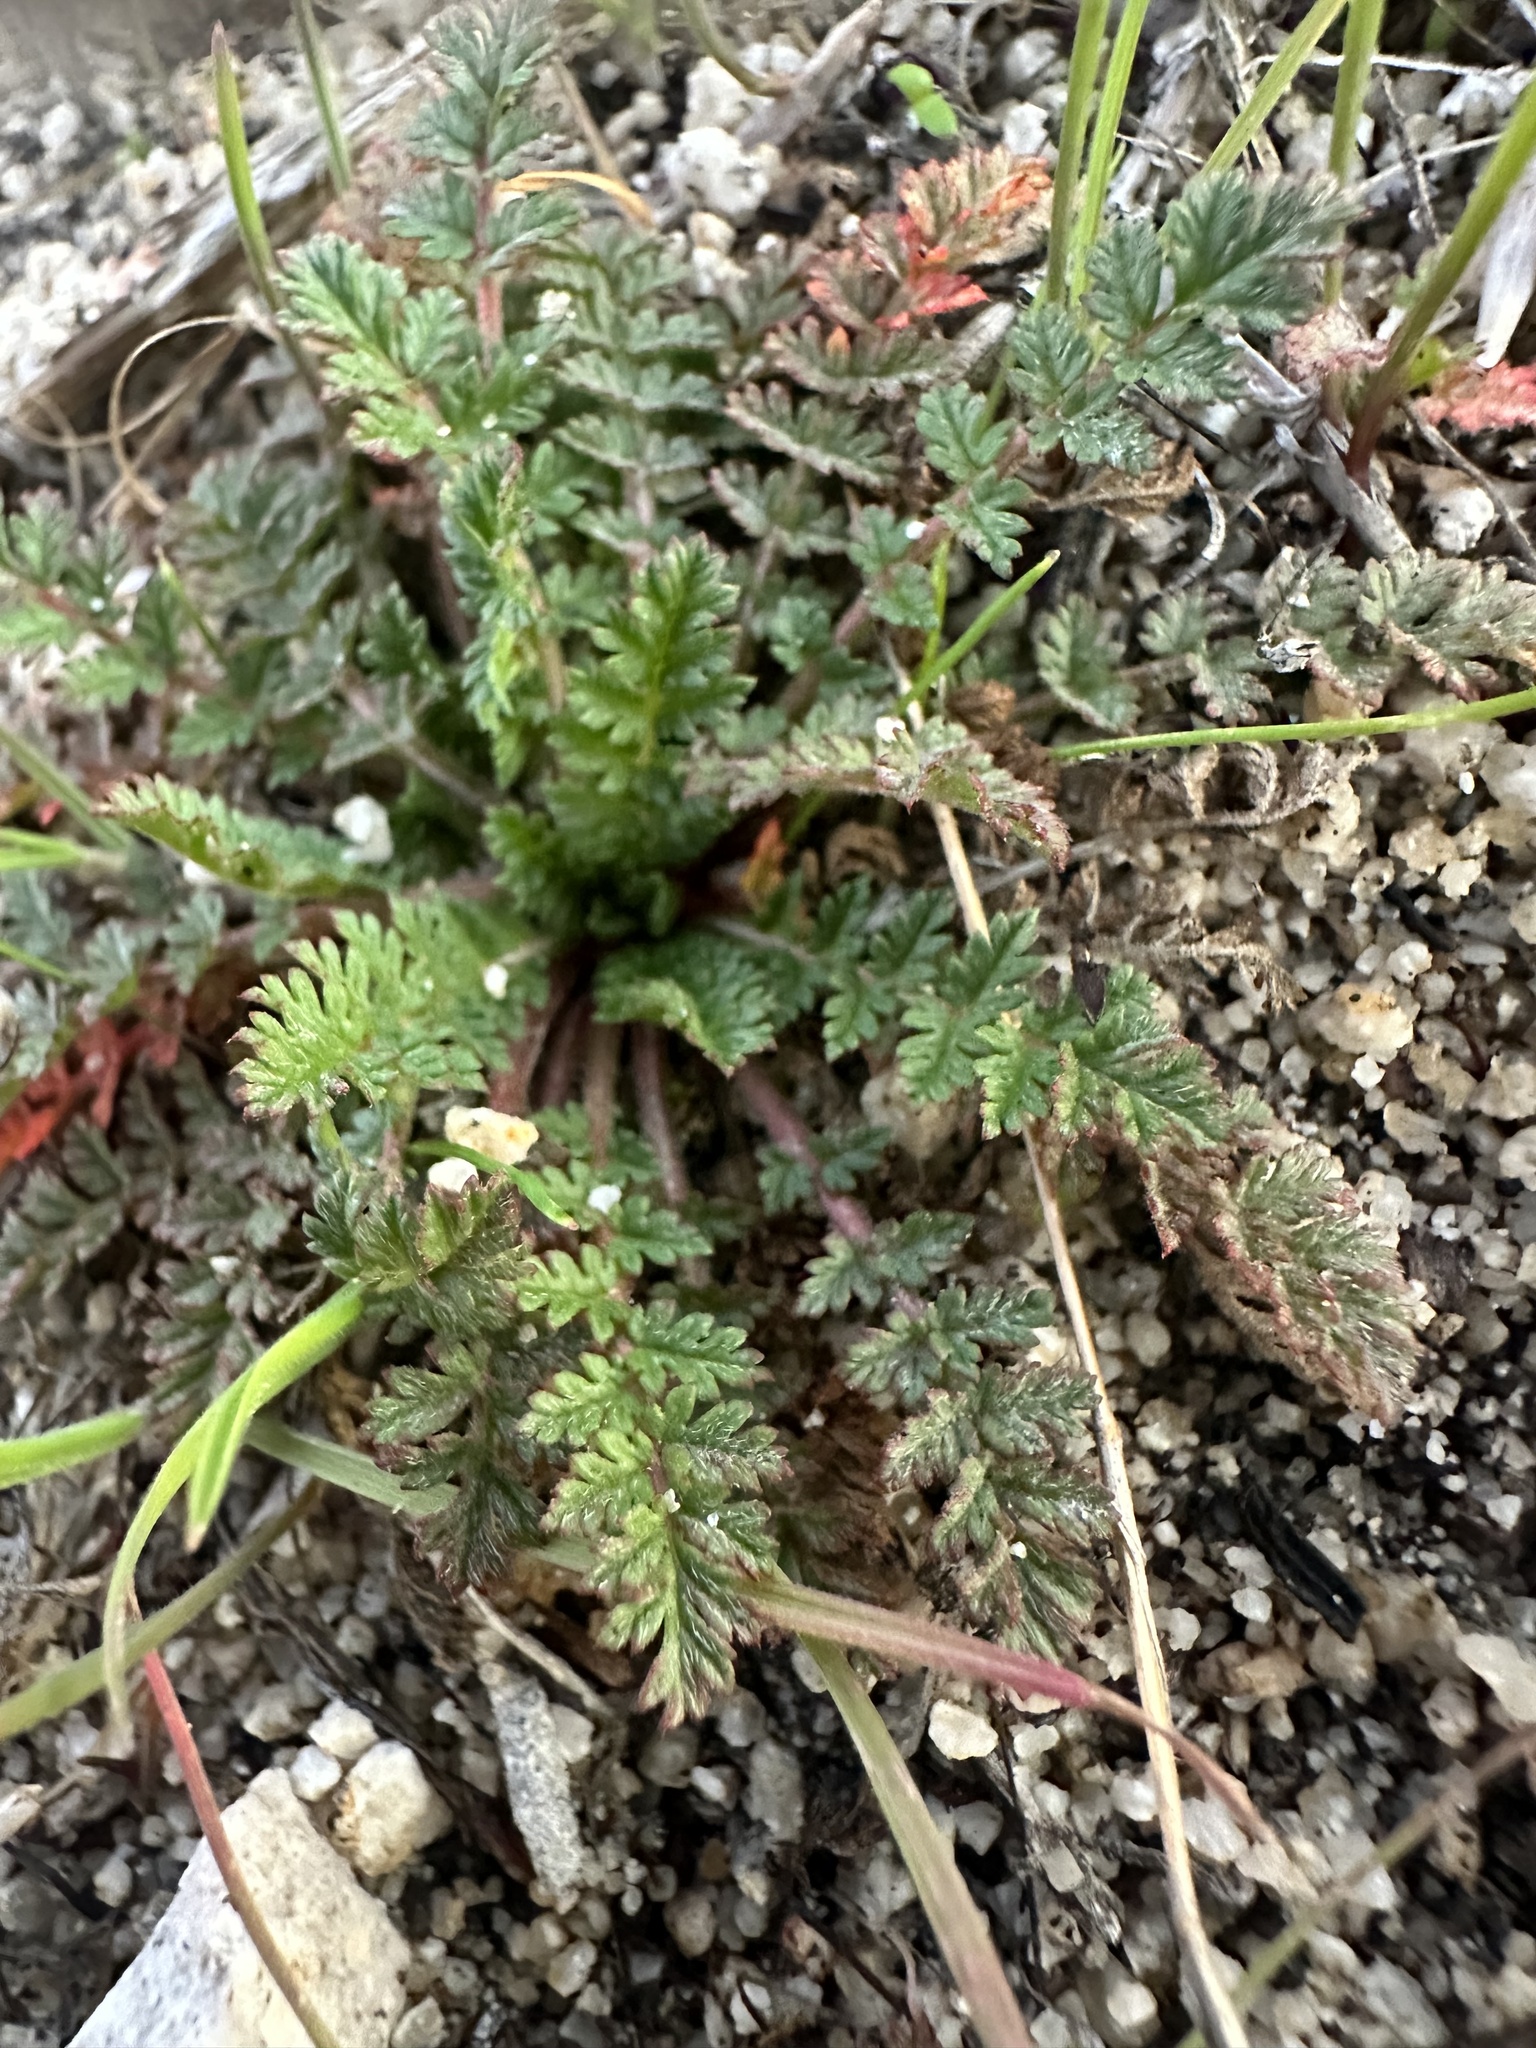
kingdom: Plantae
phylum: Tracheophyta
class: Magnoliopsida
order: Geraniales
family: Geraniaceae
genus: Erodium
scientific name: Erodium cicutarium
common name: Common stork's-bill
